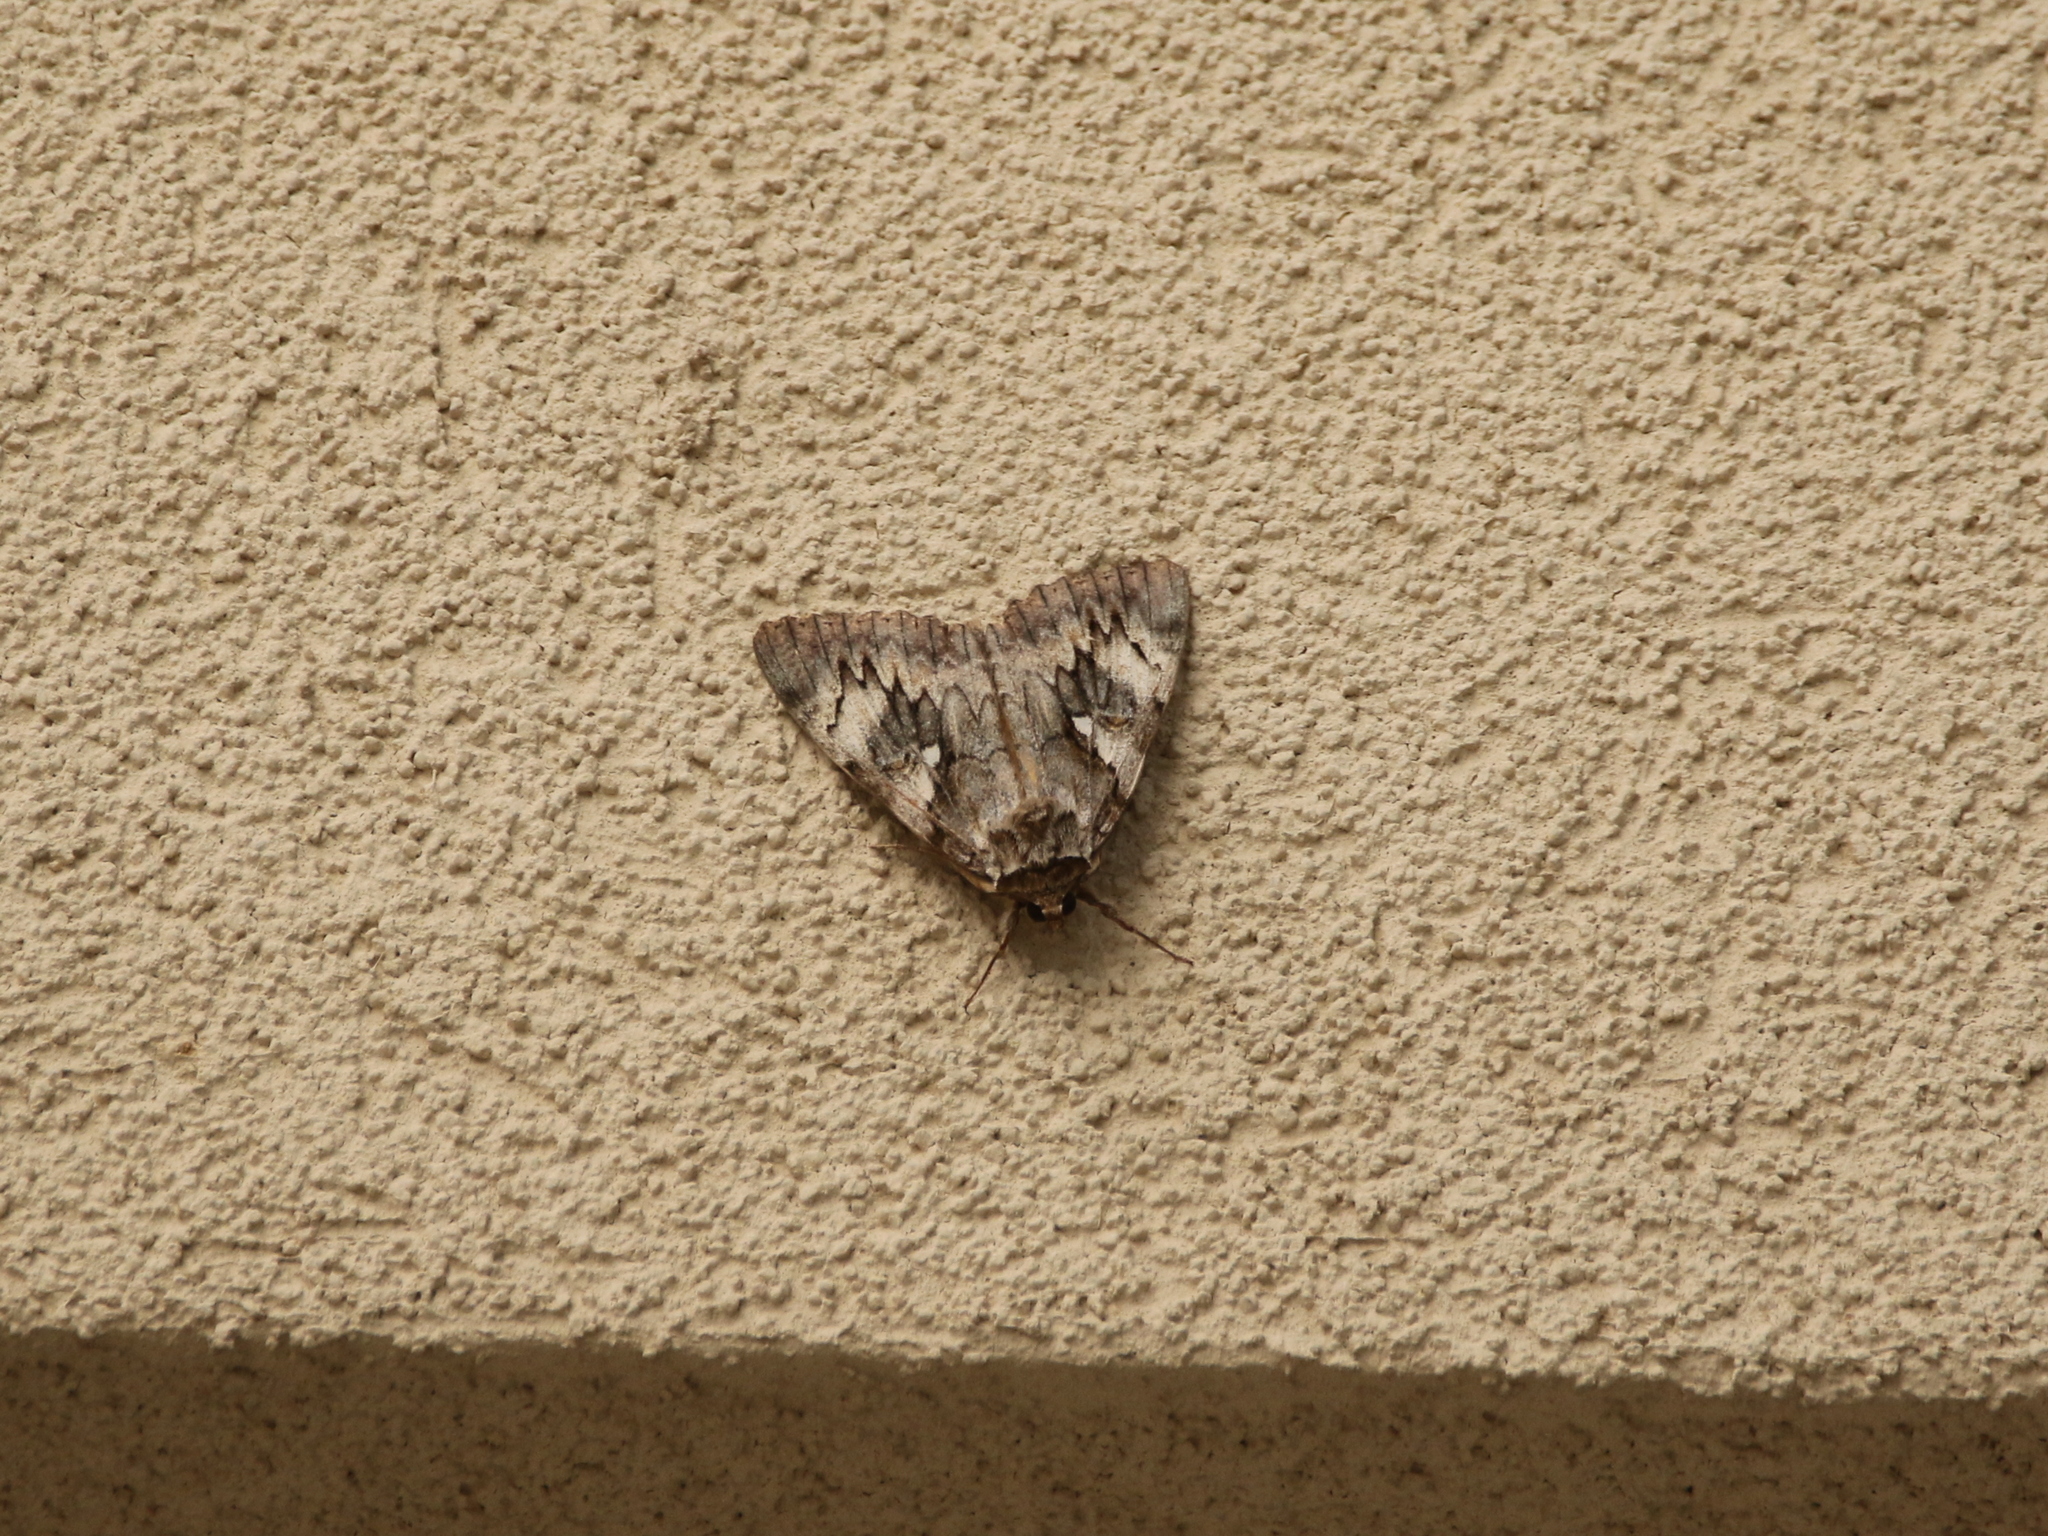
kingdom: Animalia
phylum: Arthropoda
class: Insecta
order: Lepidoptera
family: Erebidae
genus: Catocala
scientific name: Catocala cerogama
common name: Yellow banded underwing
